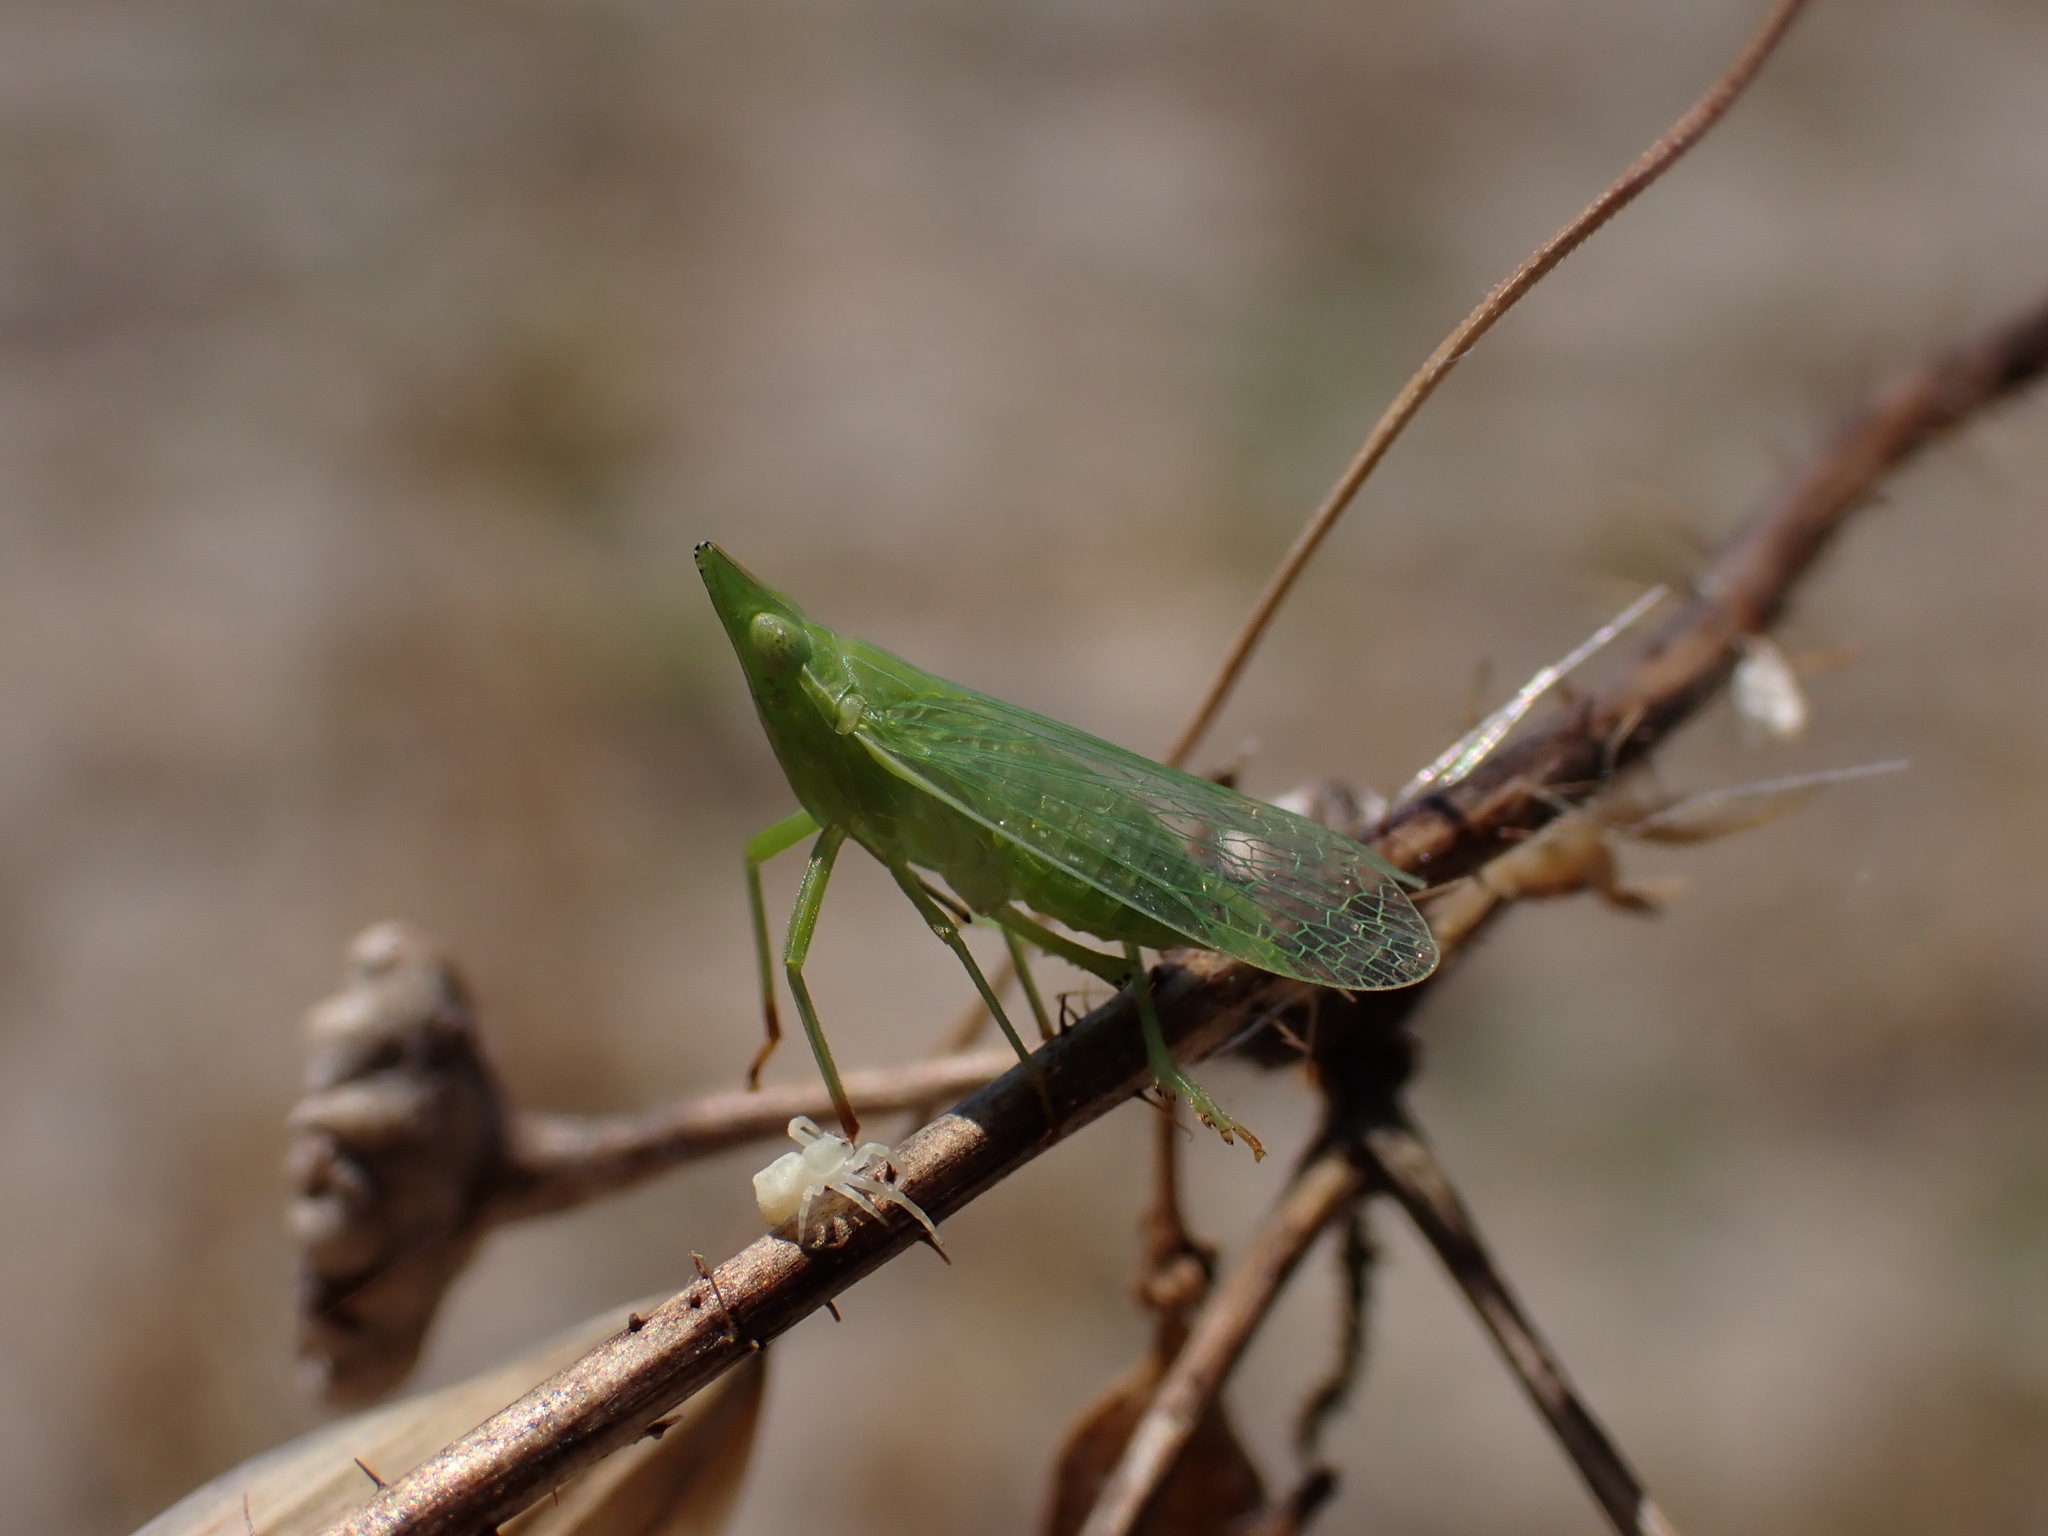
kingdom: Animalia
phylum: Arthropoda
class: Insecta
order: Hemiptera
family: Dictyopharidae
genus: Dictyophara
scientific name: Dictyophara europaea
